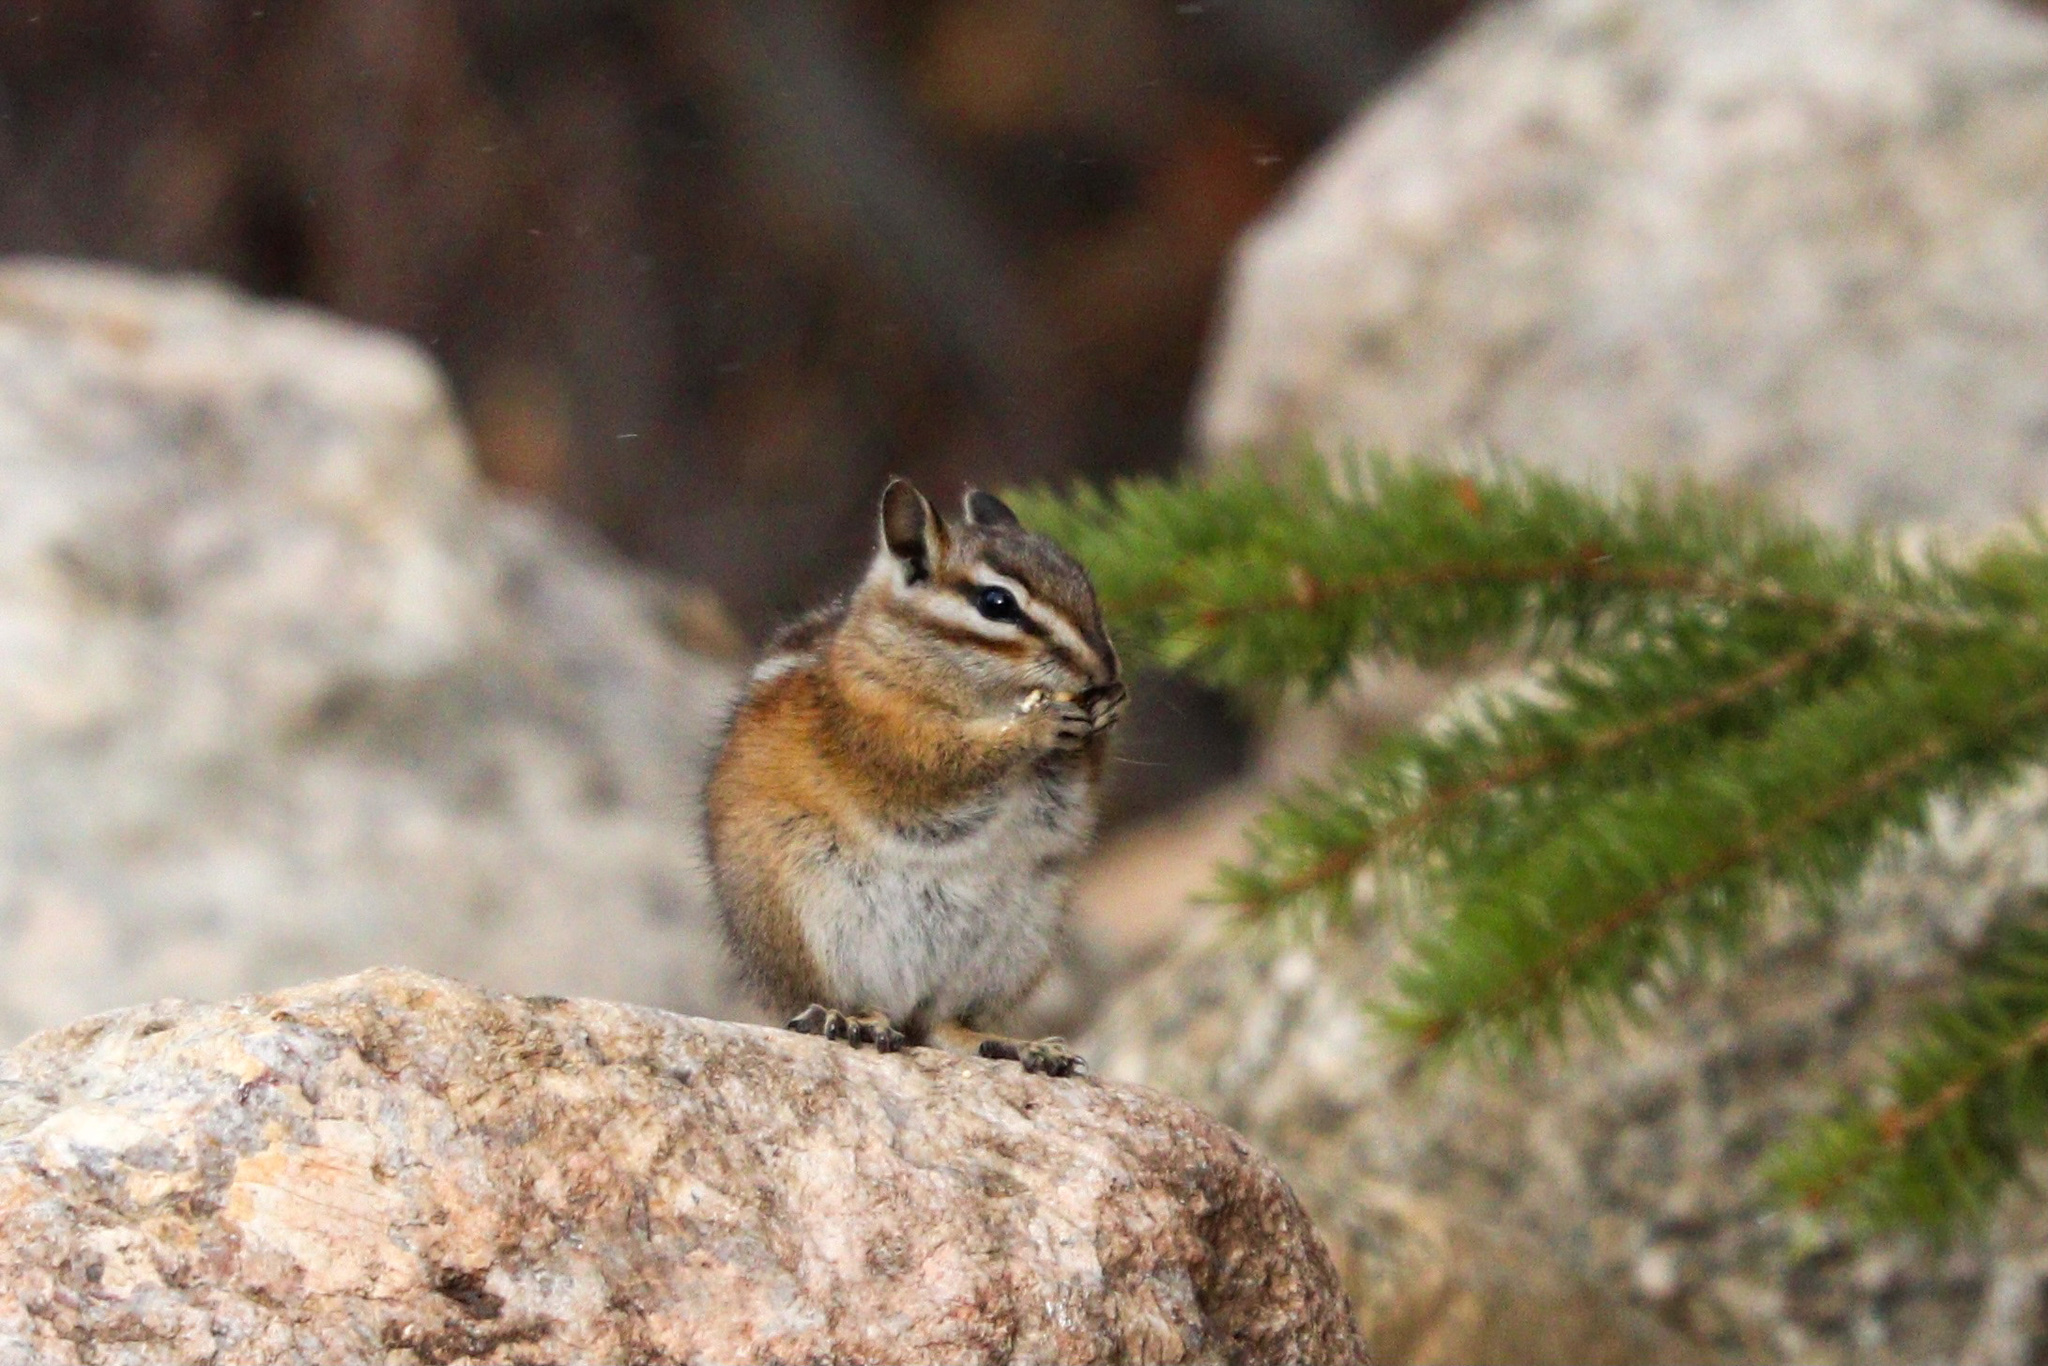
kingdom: Animalia
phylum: Chordata
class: Mammalia
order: Rodentia
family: Sciuridae
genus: Tamias
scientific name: Tamias minimus
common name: Least chipmunk
